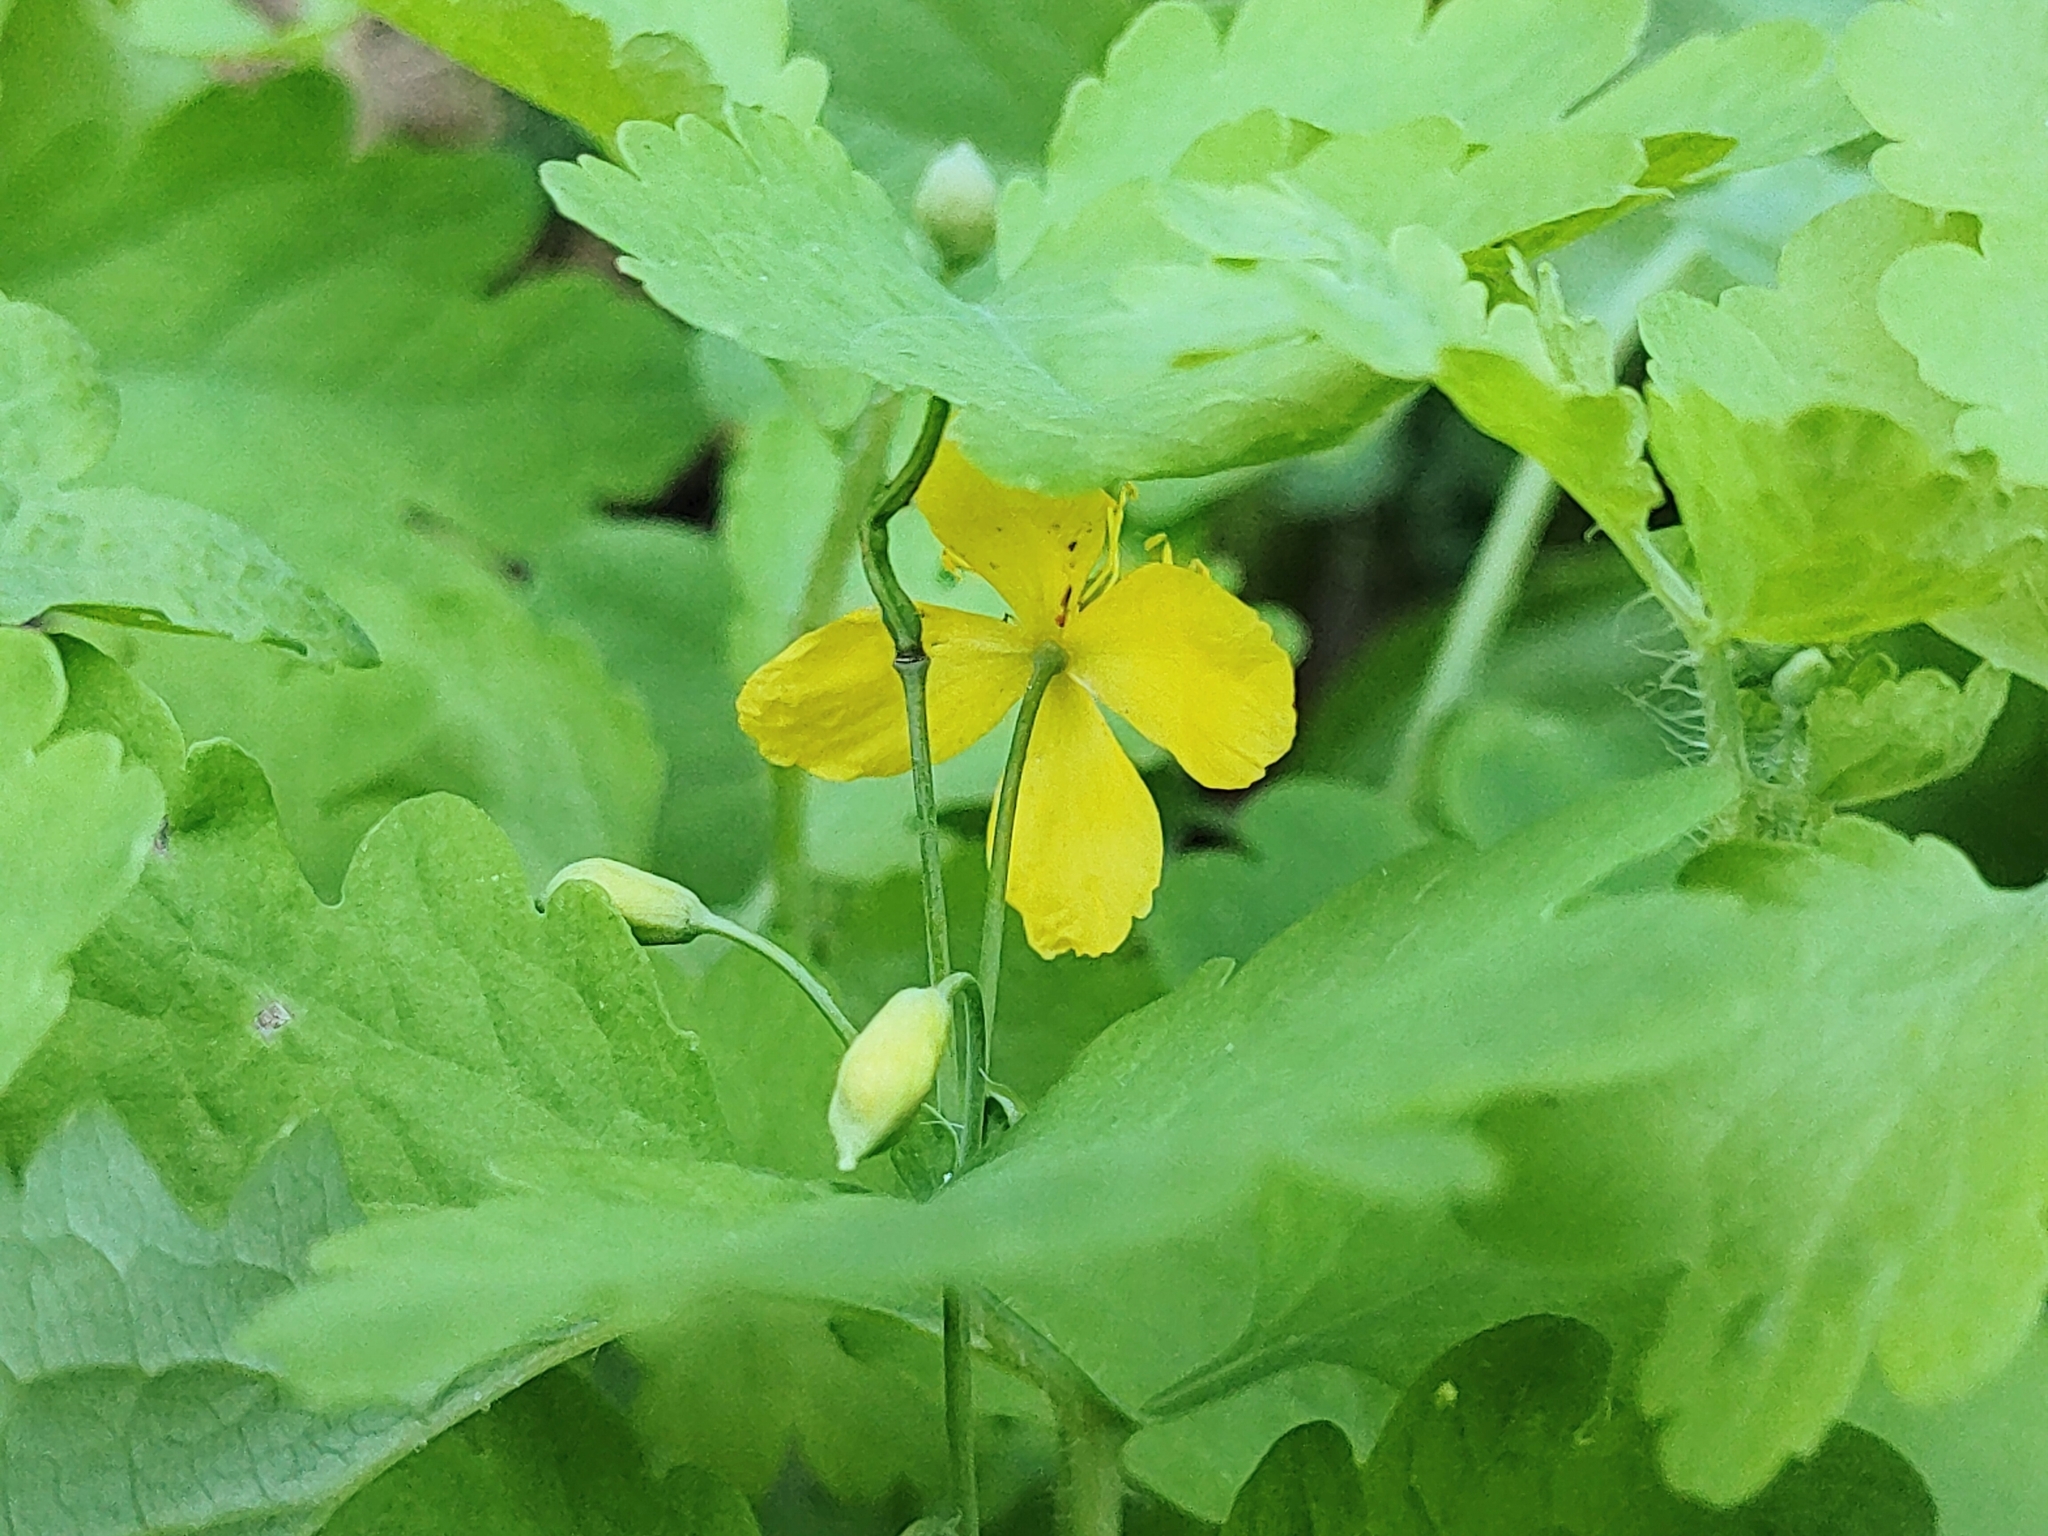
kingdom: Plantae
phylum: Tracheophyta
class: Magnoliopsida
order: Ranunculales
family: Papaveraceae
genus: Chelidonium
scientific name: Chelidonium majus
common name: Greater celandine
